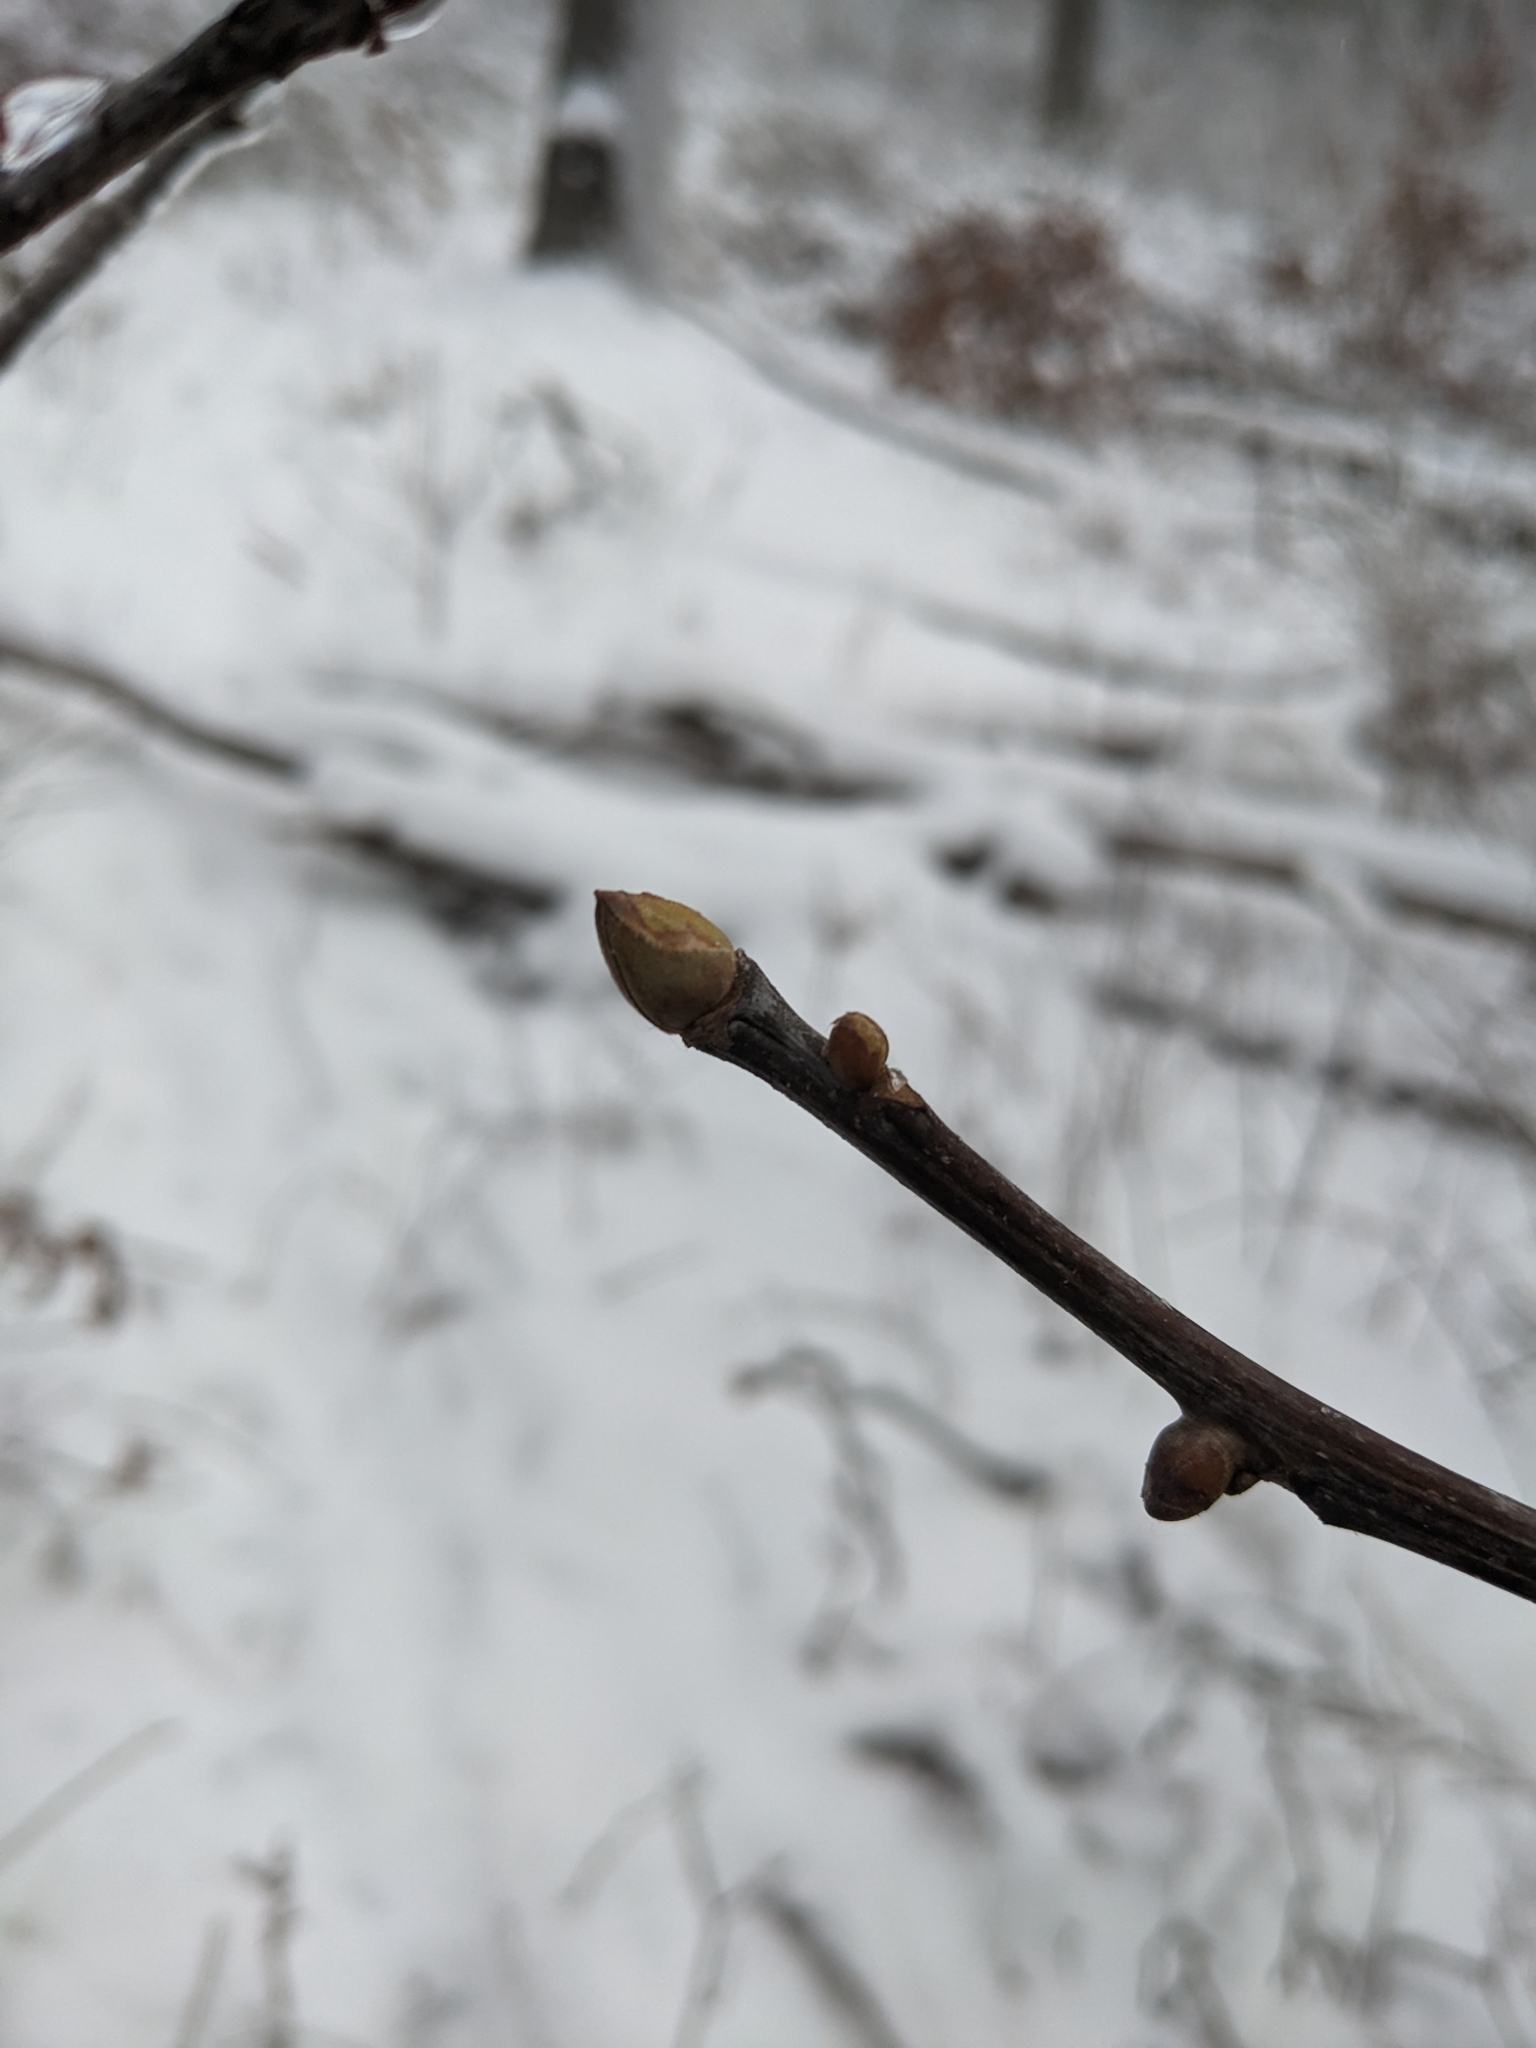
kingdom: Plantae
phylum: Tracheophyta
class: Magnoliopsida
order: Fagales
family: Juglandaceae
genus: Carya
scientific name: Carya alba
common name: Mockernut hickory
